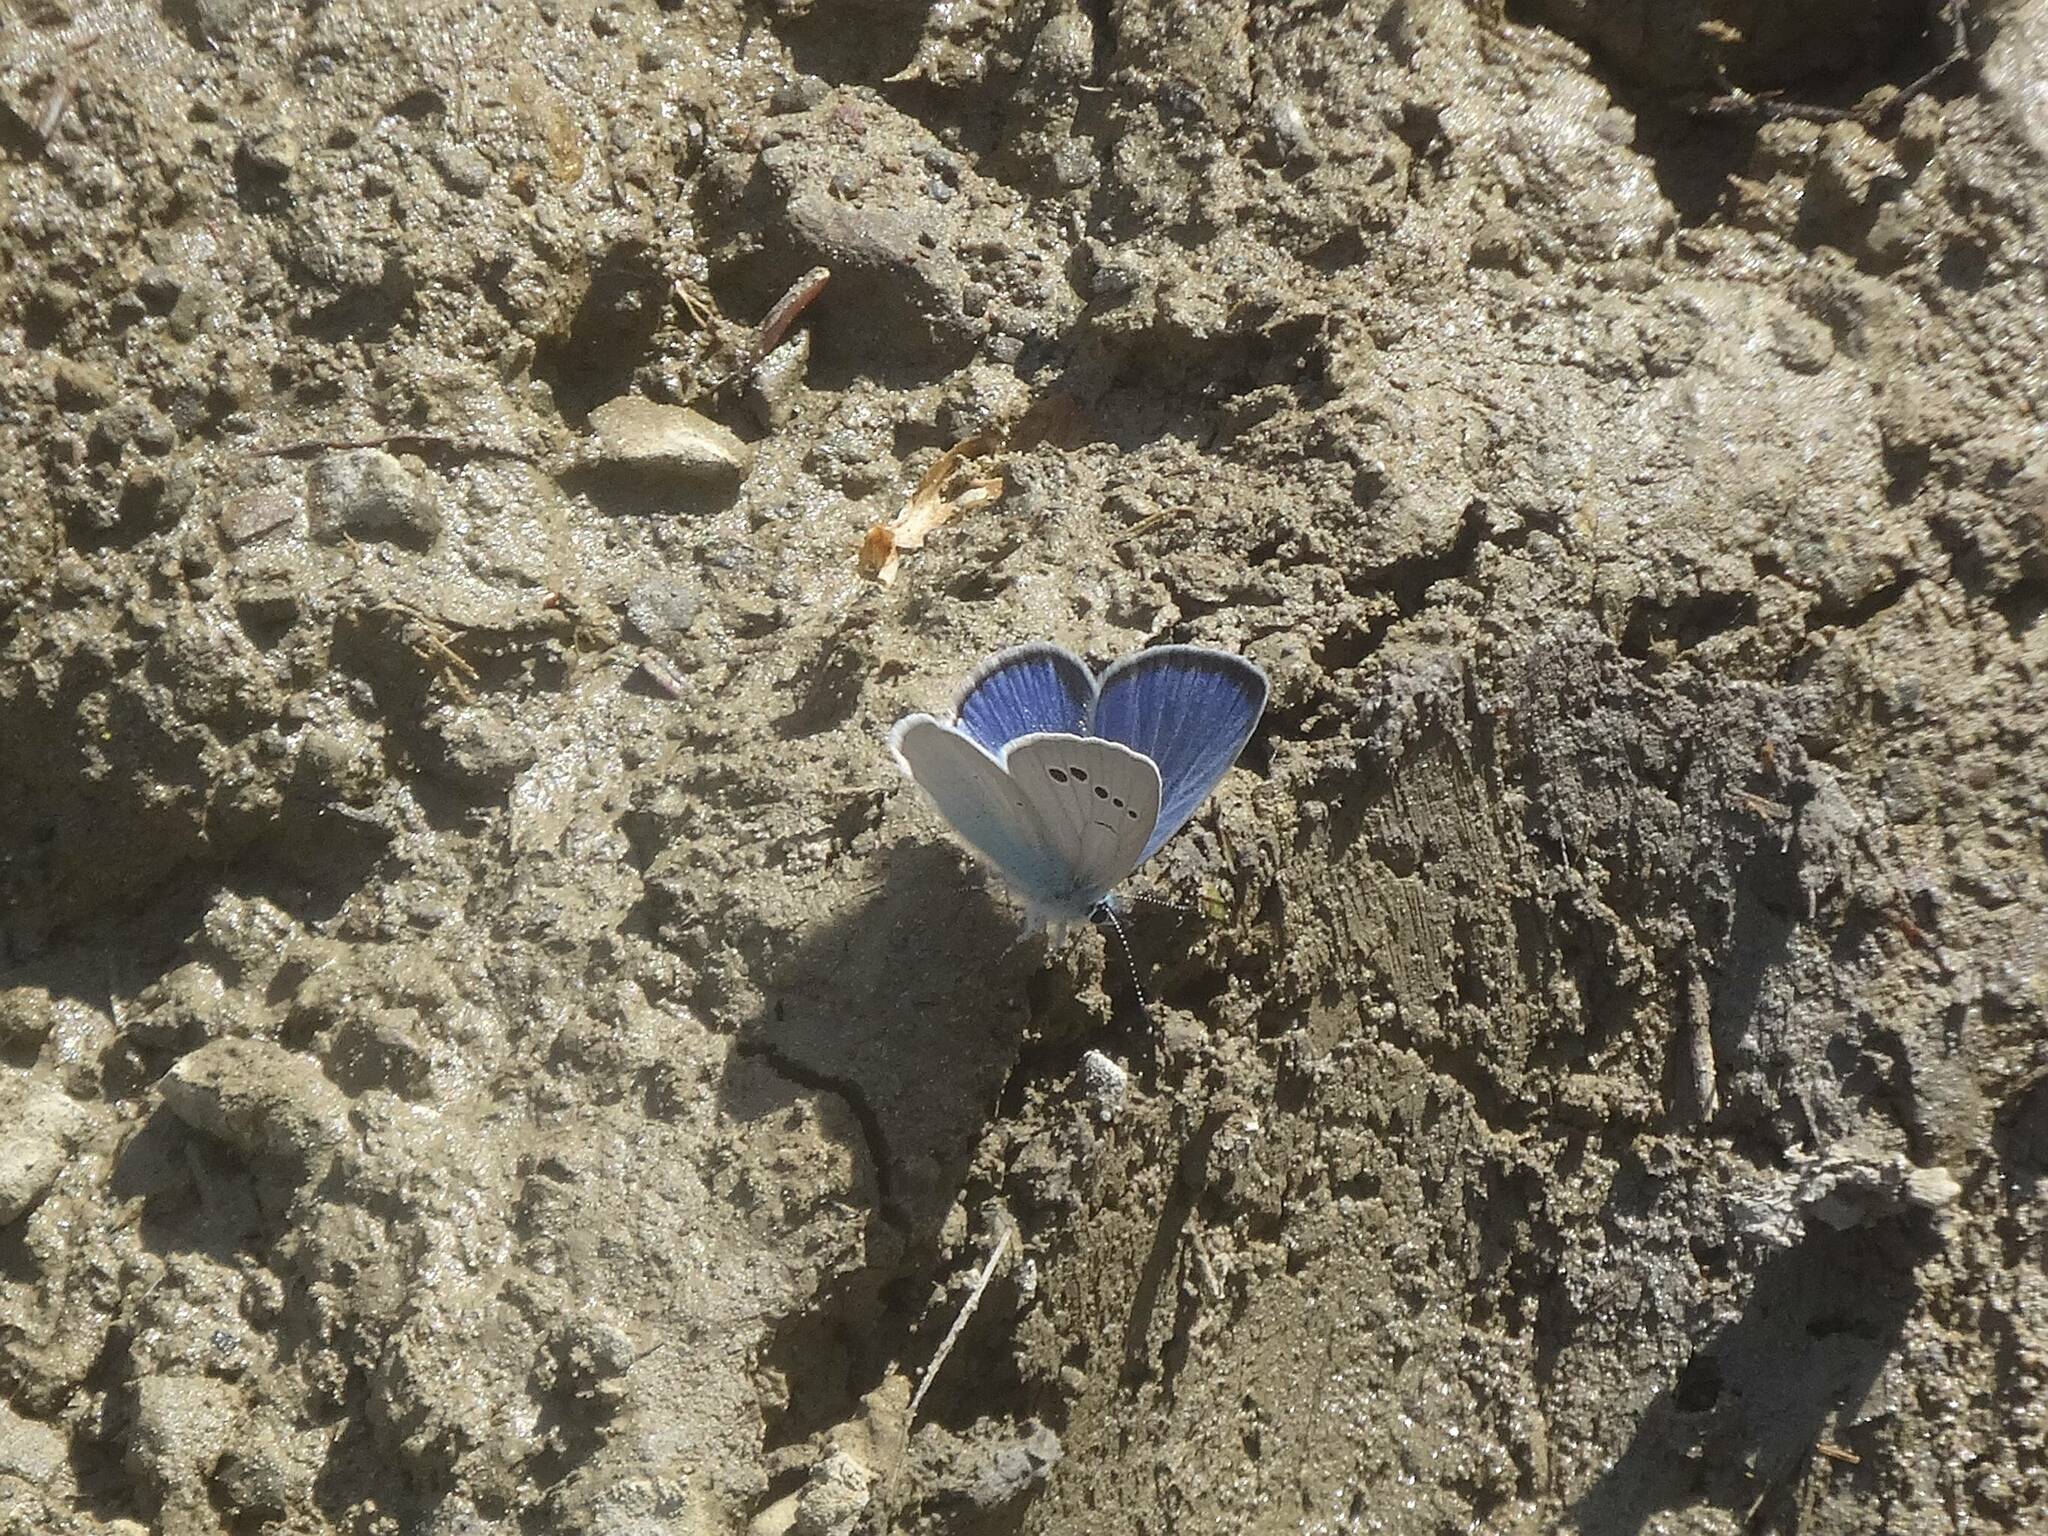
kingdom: Animalia
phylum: Arthropoda
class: Insecta
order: Lepidoptera
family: Lycaenidae
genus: Glaucopsyche
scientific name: Glaucopsyche alexis
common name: Green-underside blue
